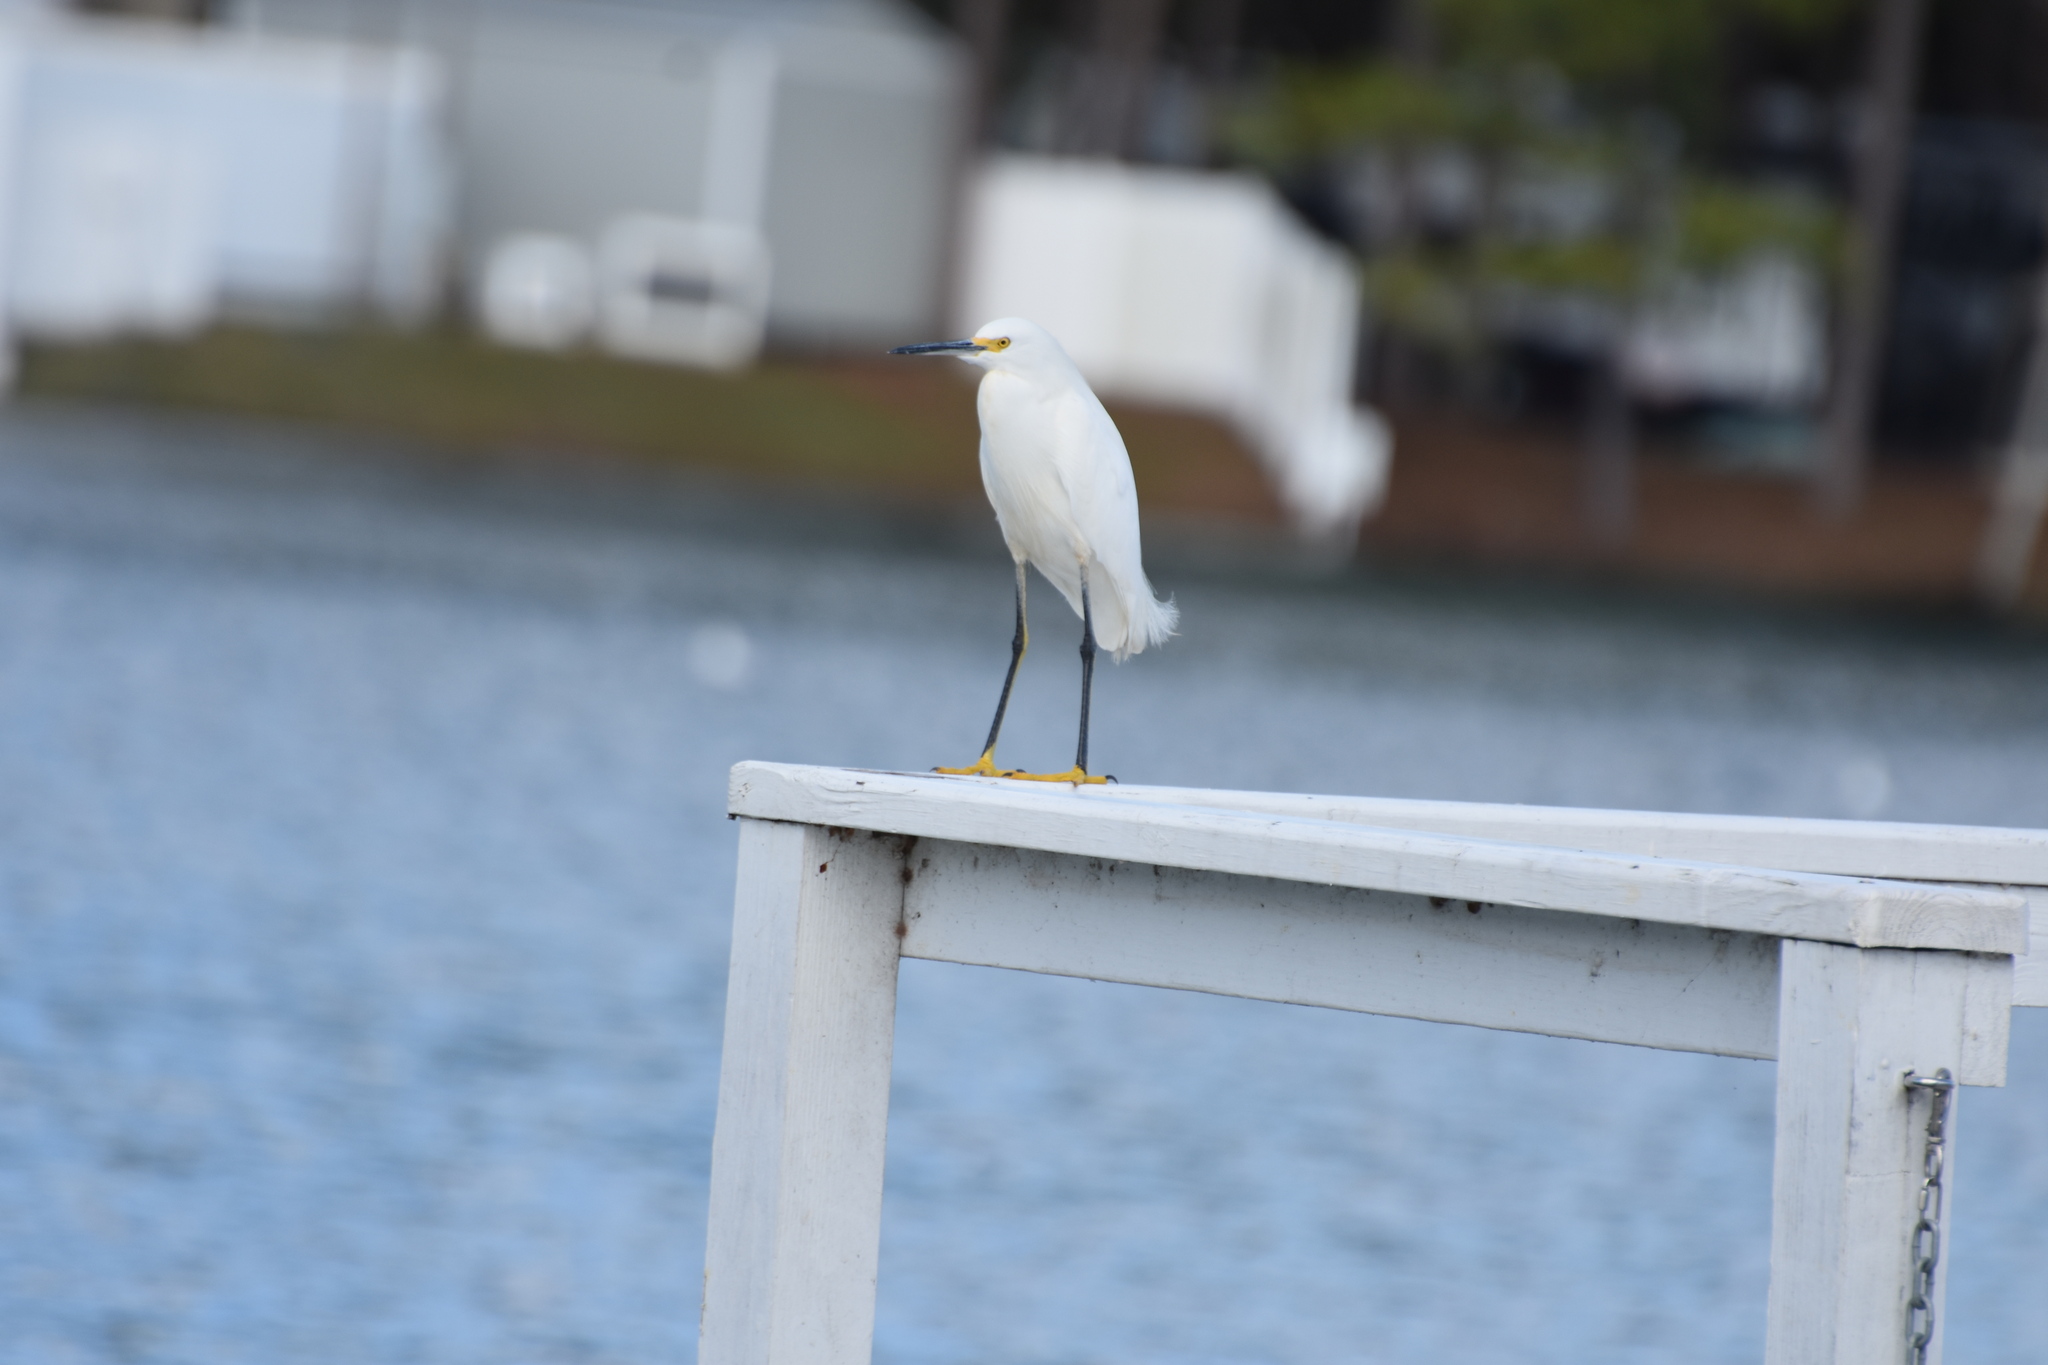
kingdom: Animalia
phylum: Chordata
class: Aves
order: Pelecaniformes
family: Ardeidae
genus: Egretta
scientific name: Egretta thula
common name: Snowy egret
